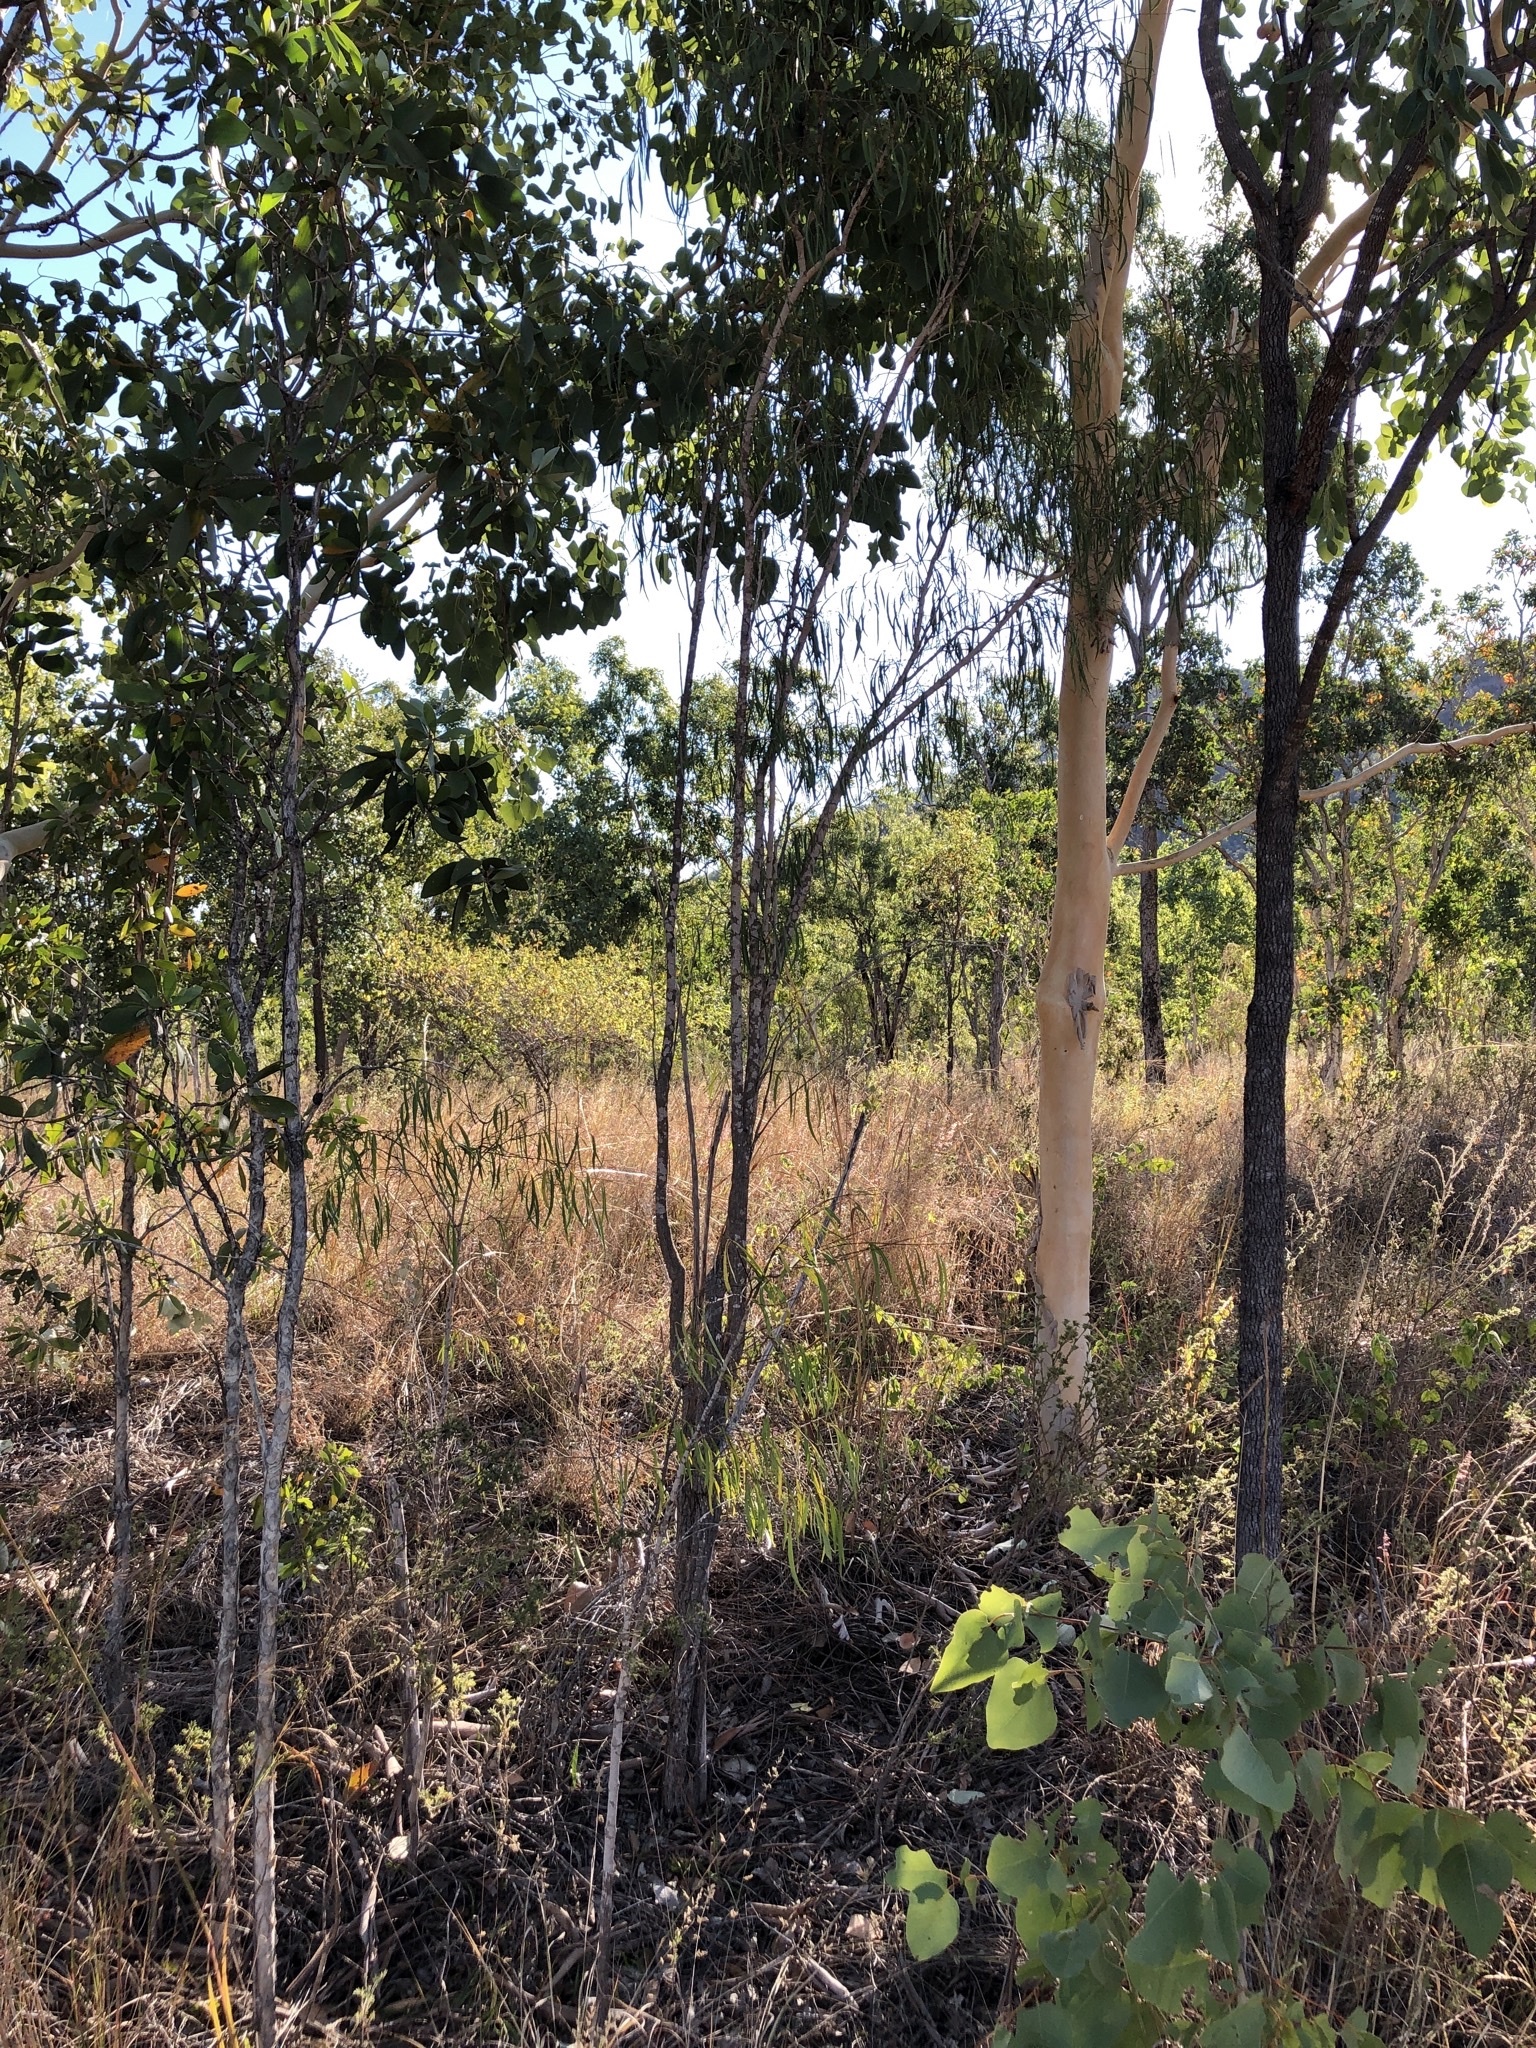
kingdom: Plantae
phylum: Tracheophyta
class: Magnoliopsida
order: Gentianales
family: Apocynaceae
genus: Wrightia
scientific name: Wrightia saligna
